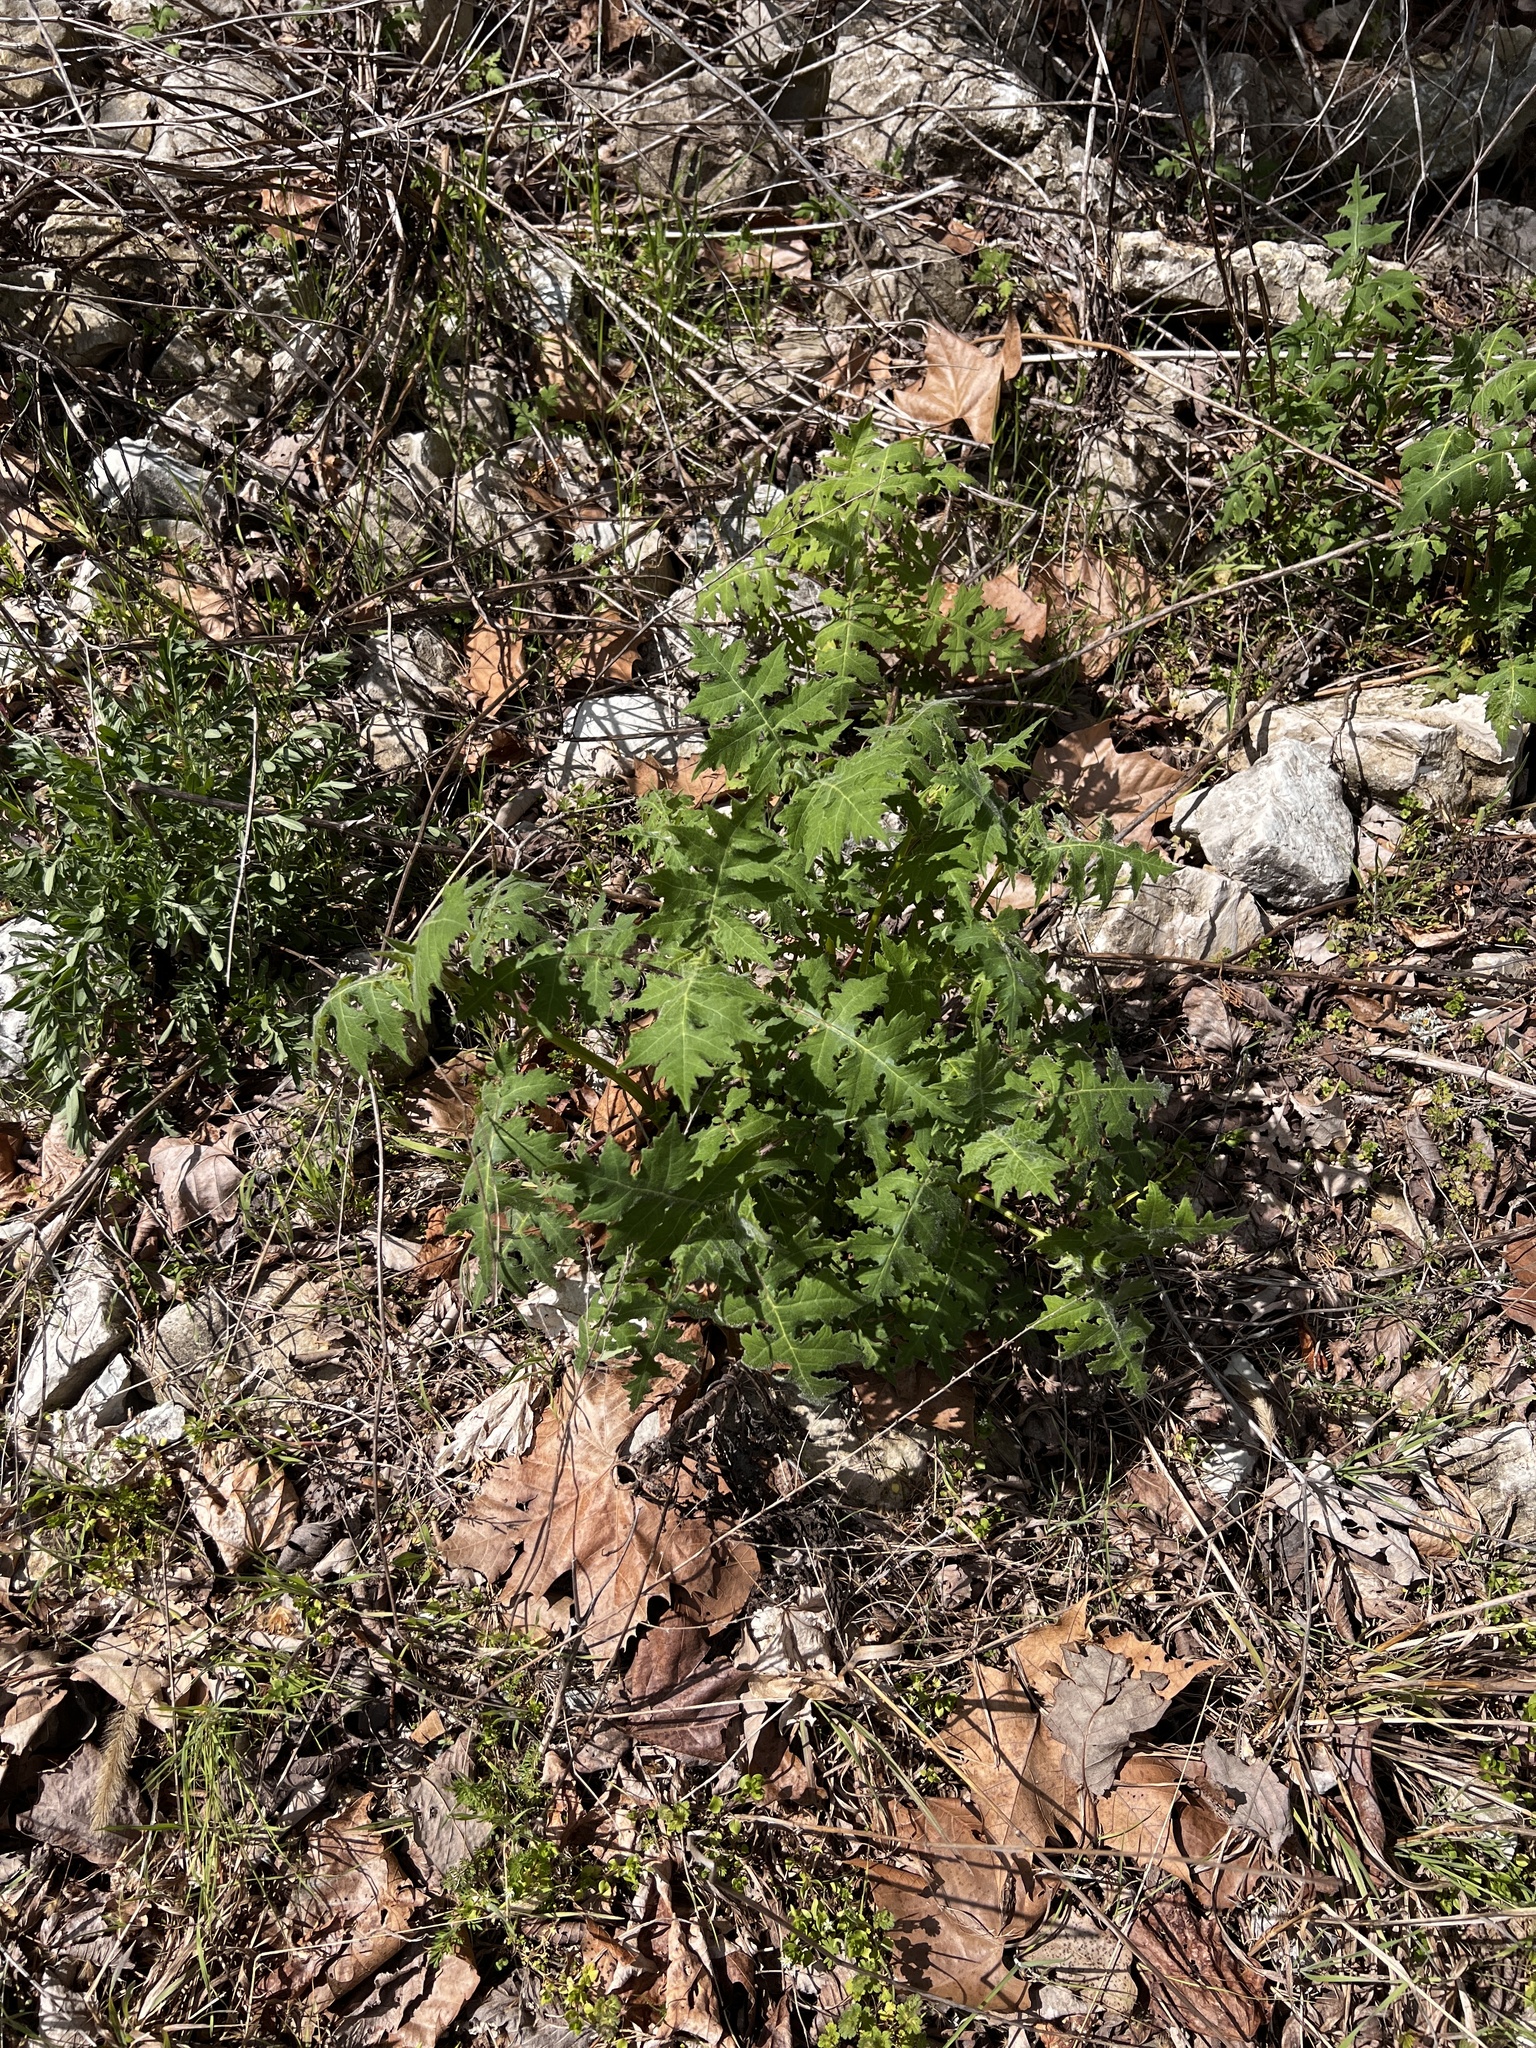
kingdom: Plantae
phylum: Tracheophyta
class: Magnoliopsida
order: Asterales
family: Asteraceae
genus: Polymnia
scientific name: Polymnia canadensis
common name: Pale-flowered leafcup
